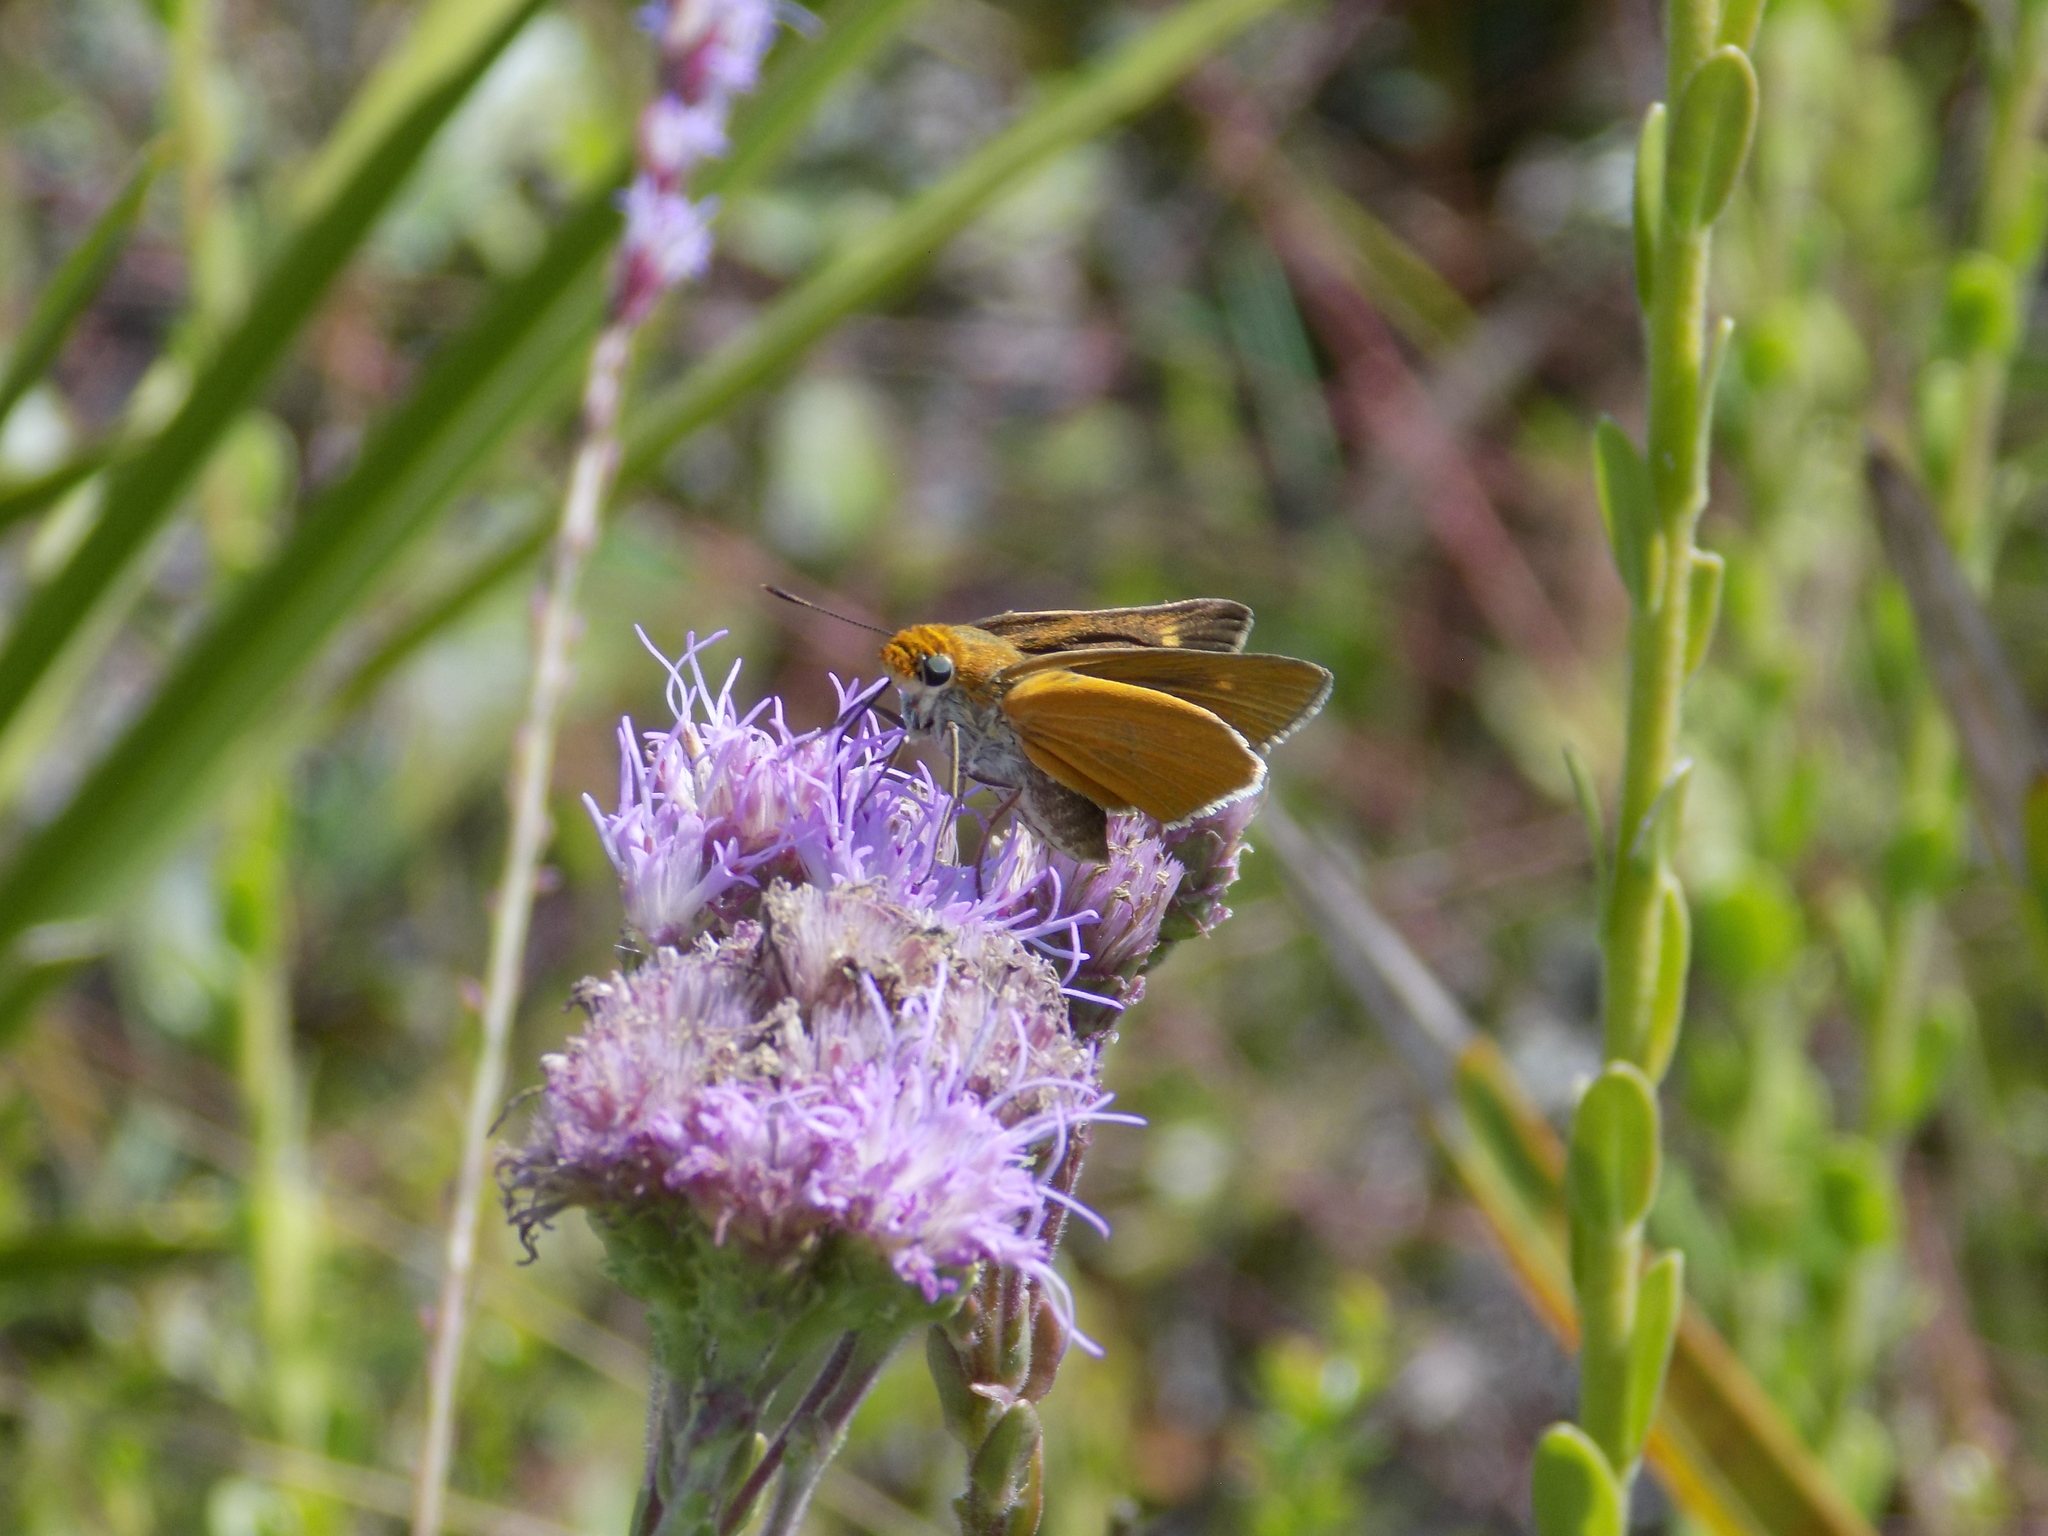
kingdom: Animalia
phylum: Arthropoda
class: Insecta
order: Lepidoptera
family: Hesperiidae
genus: Euphyes
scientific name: Euphyes arpa
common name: Palmetto skipper
